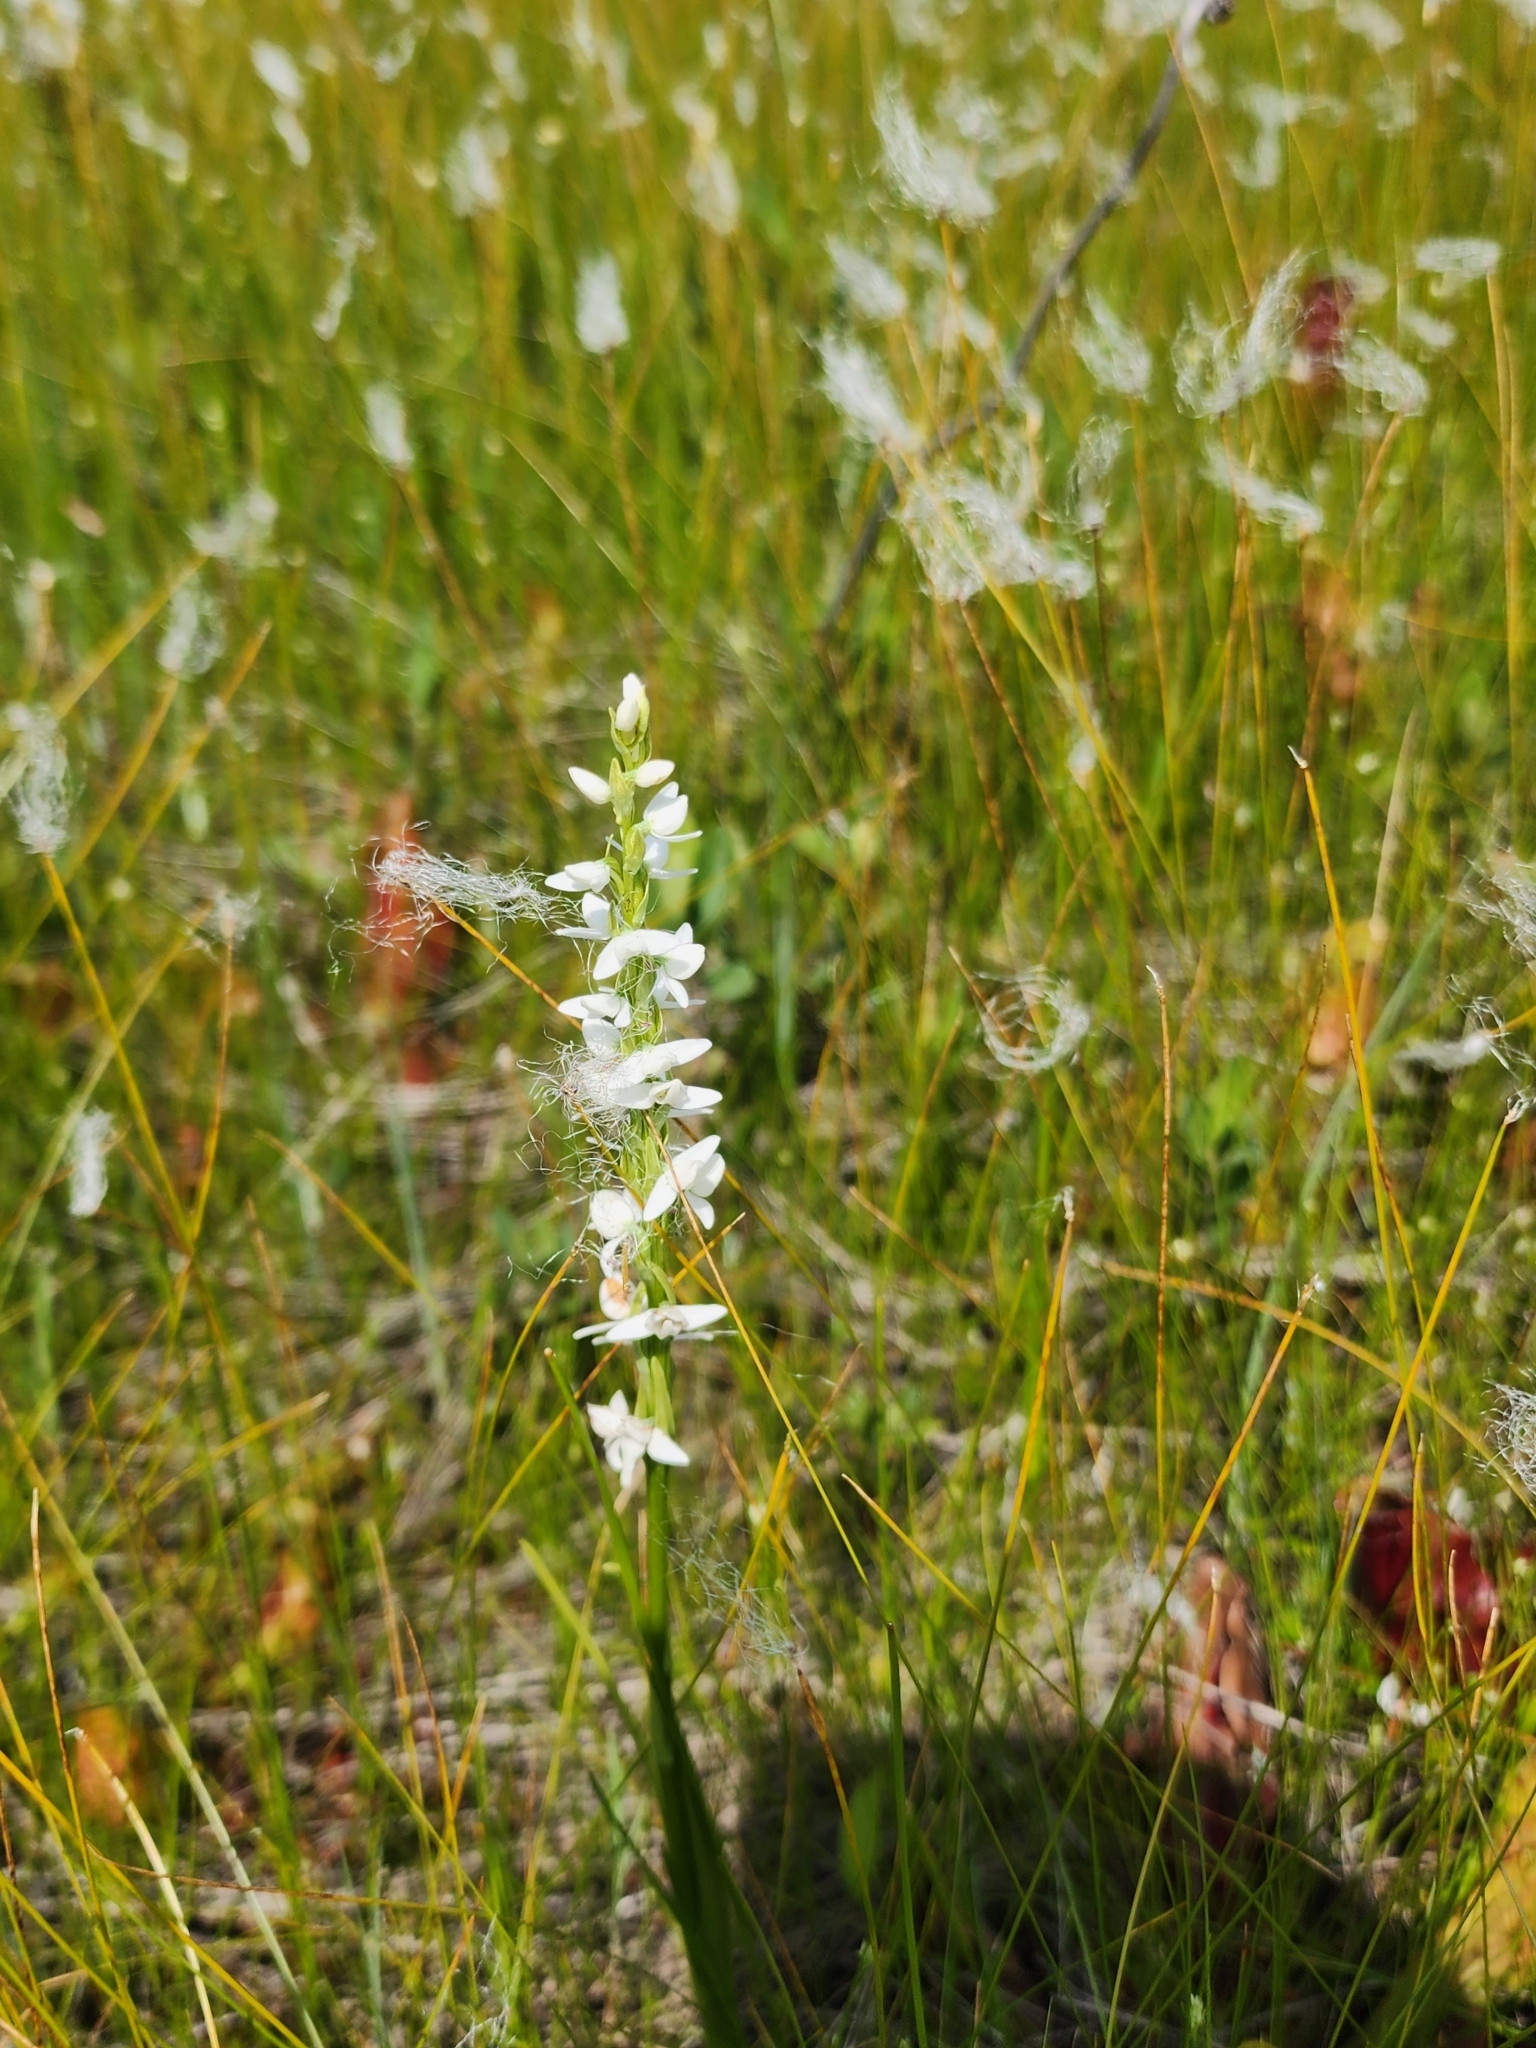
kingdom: Plantae
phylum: Tracheophyta
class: Liliopsida
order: Asparagales
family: Orchidaceae
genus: Platanthera
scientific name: Platanthera dilatata
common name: Bog candles
